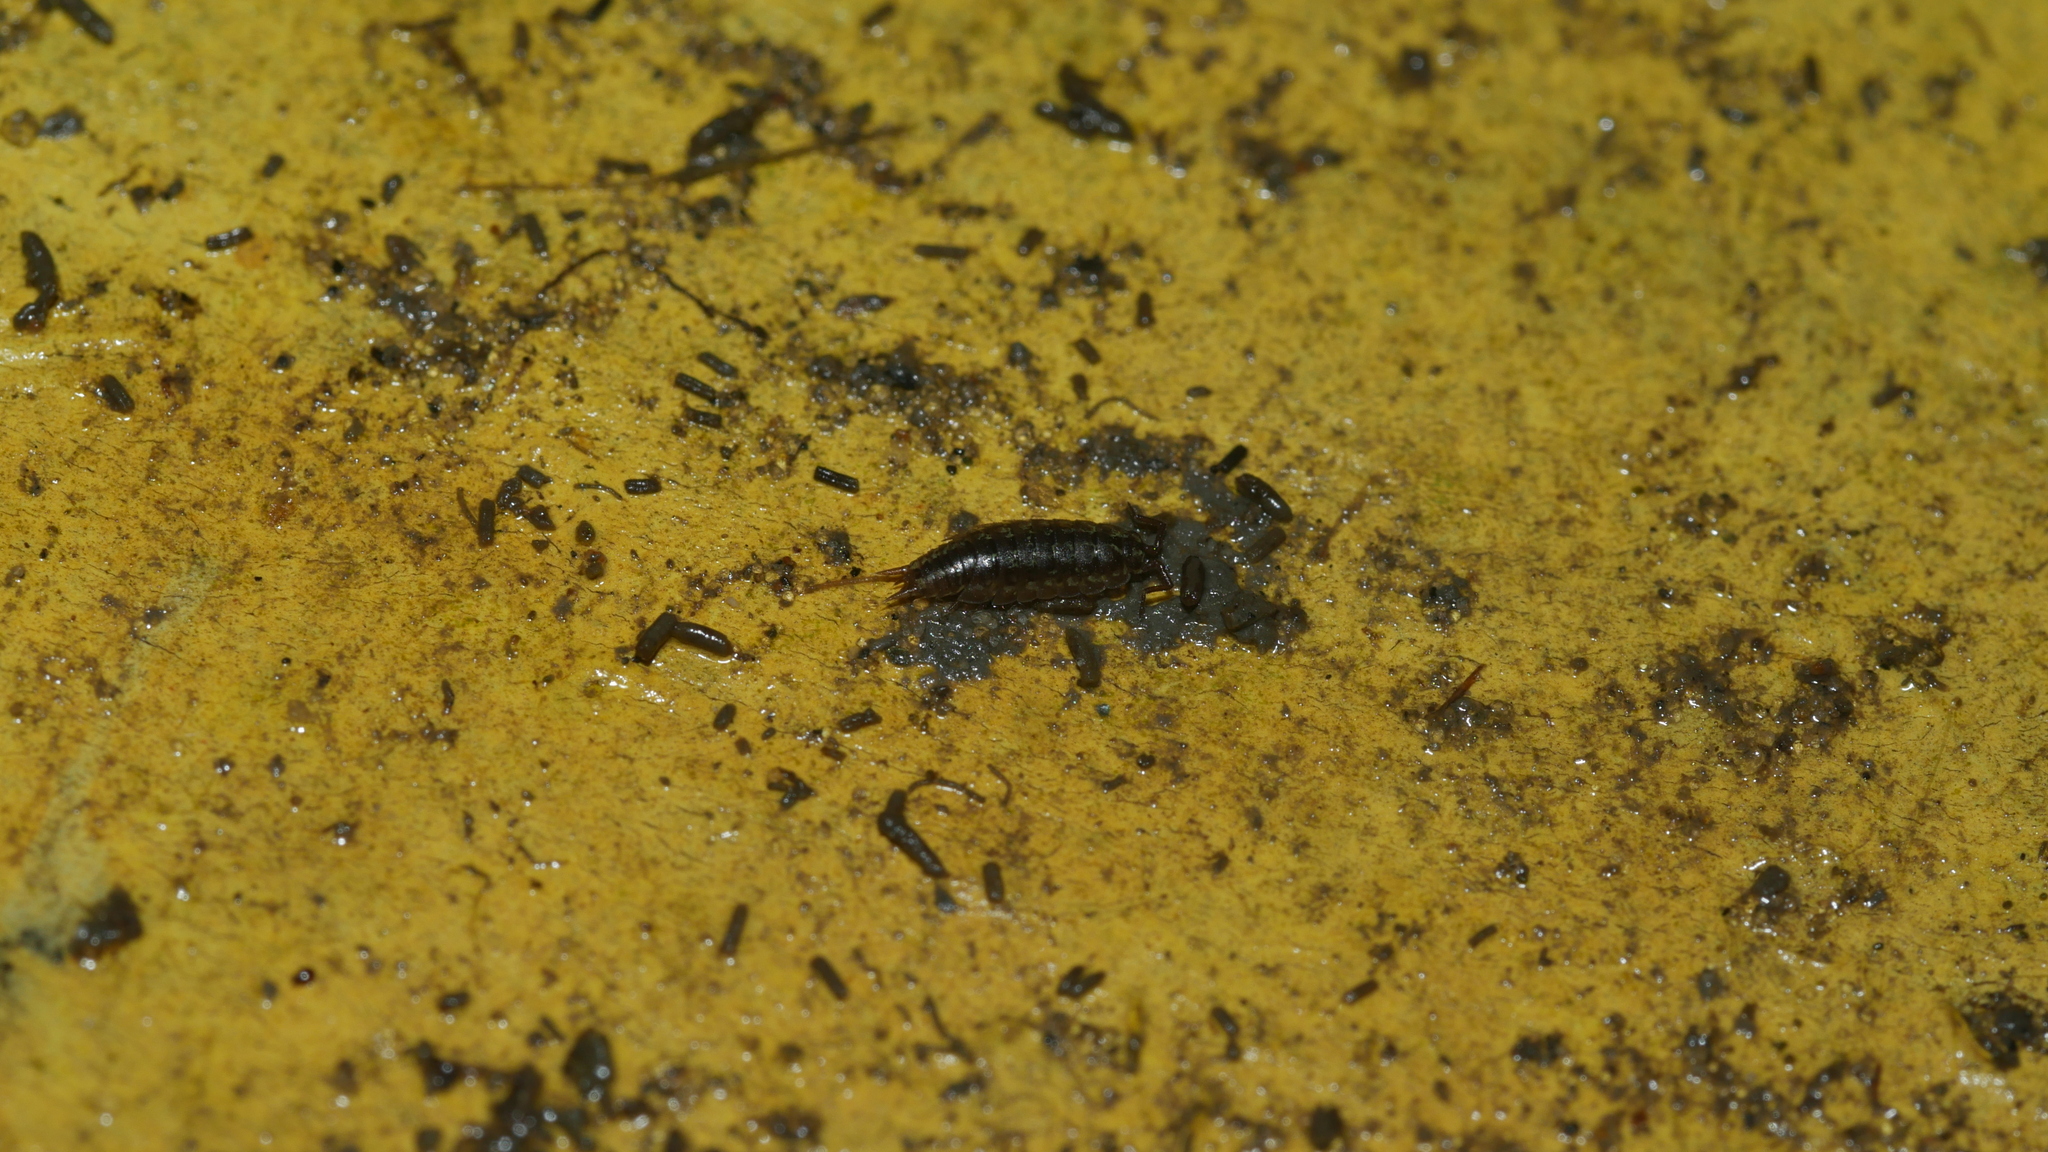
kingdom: Animalia
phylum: Arthropoda
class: Malacostraca
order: Isopoda
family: Halophilosciidae
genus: Littorophiloscia
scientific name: Littorophiloscia vittata
